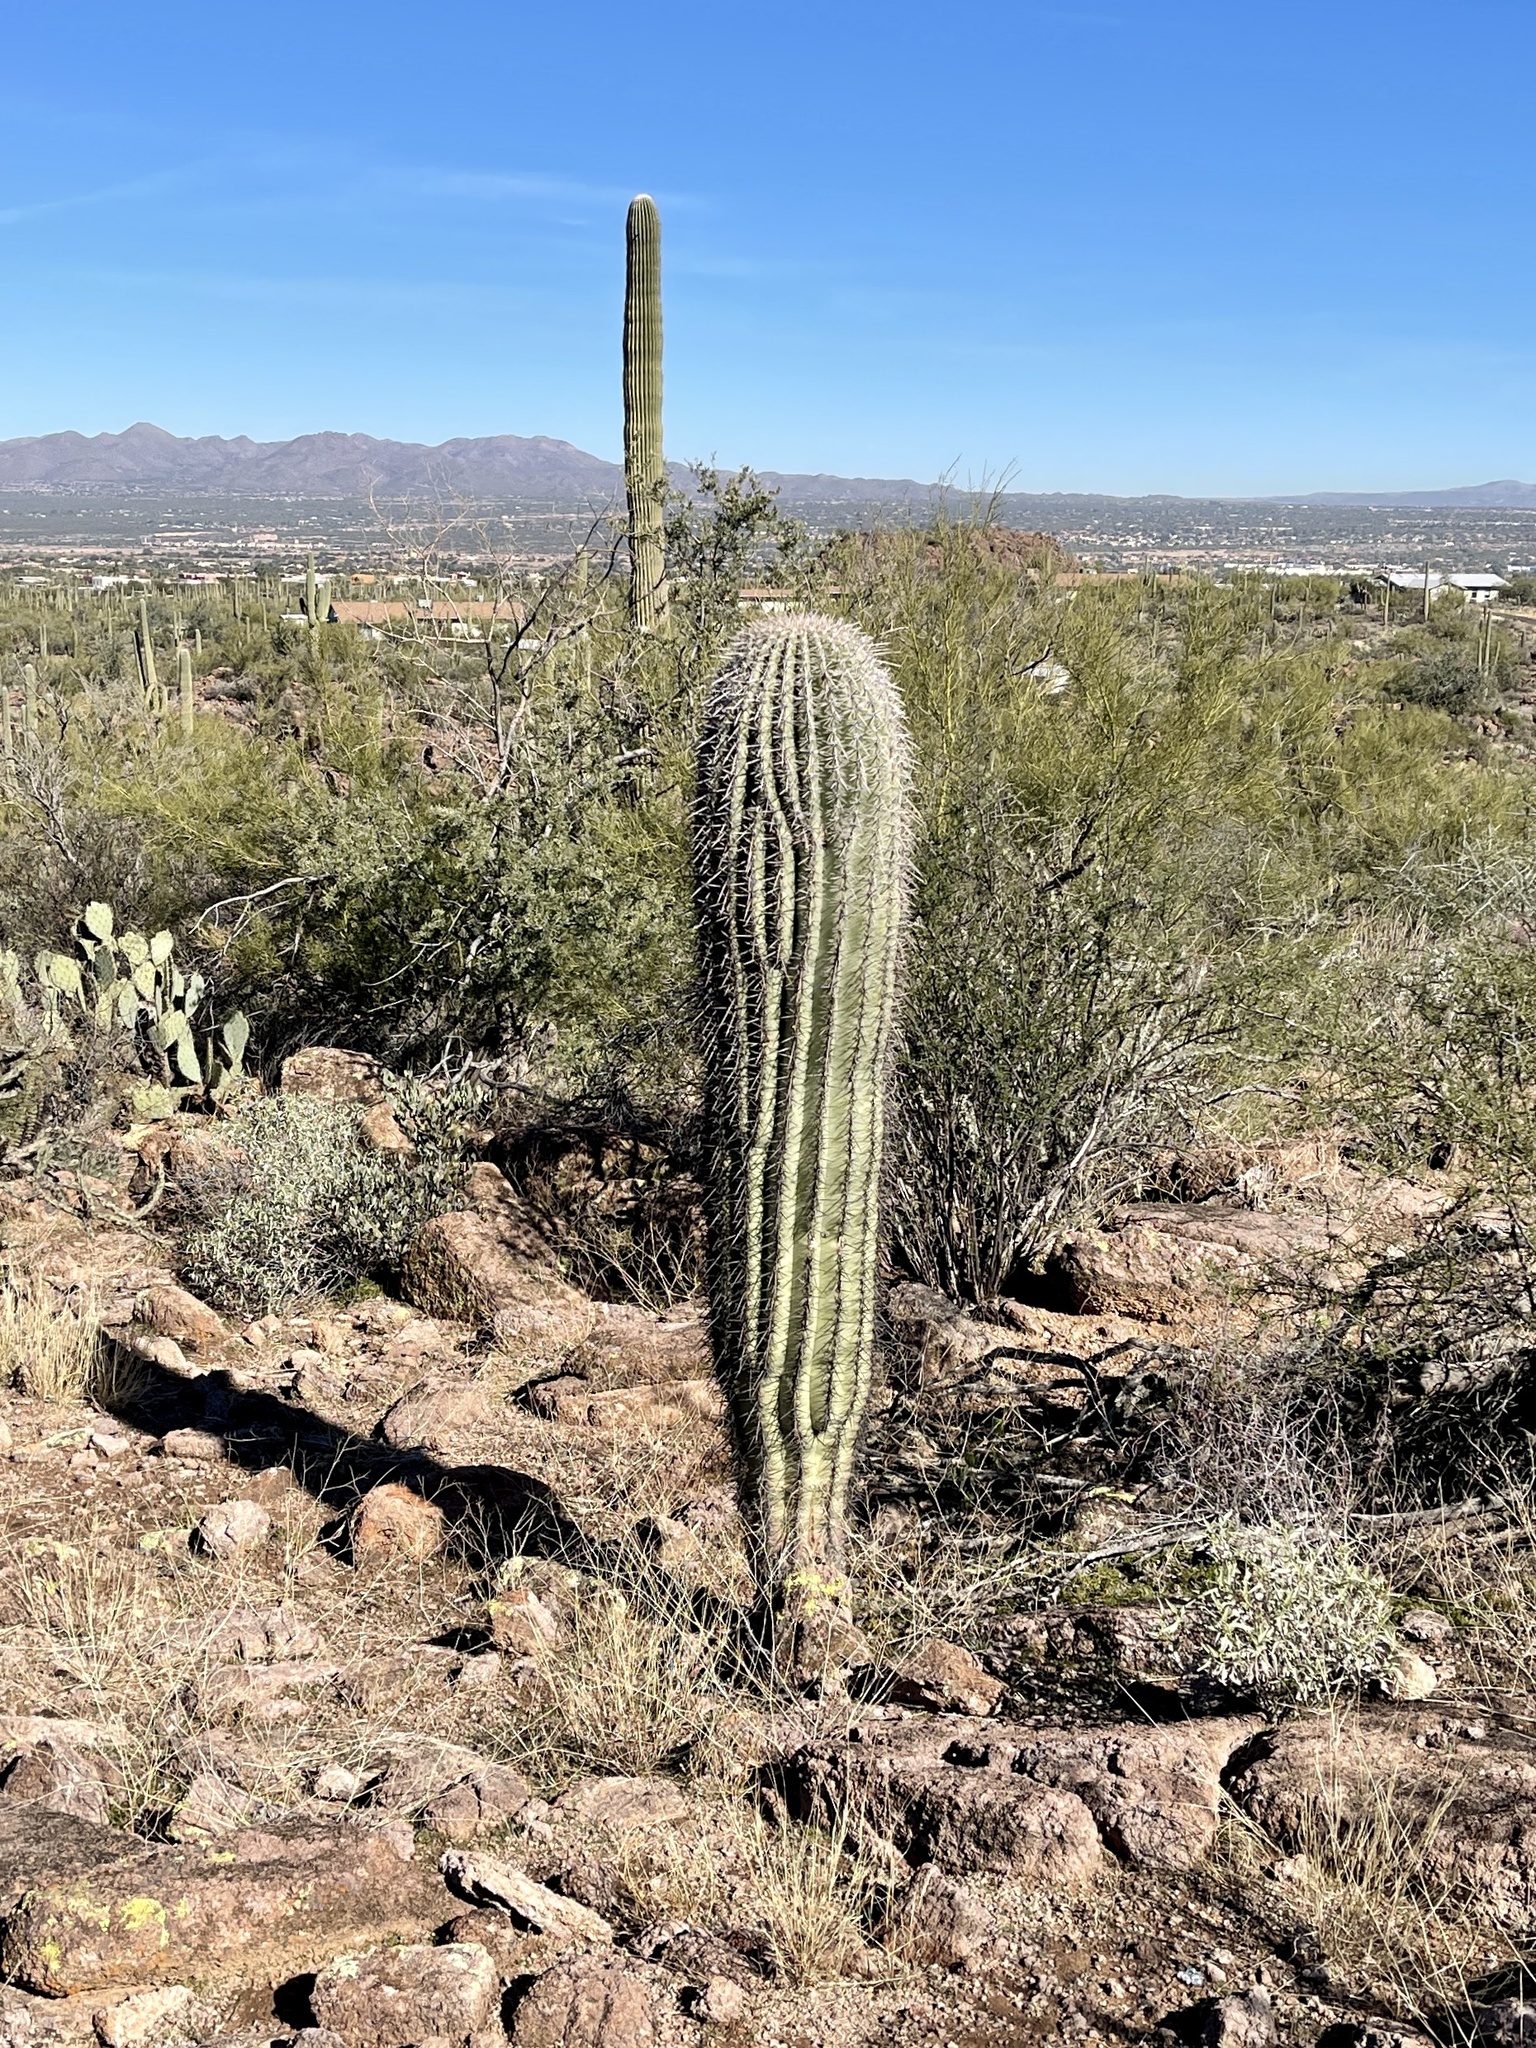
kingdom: Plantae
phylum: Tracheophyta
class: Magnoliopsida
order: Caryophyllales
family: Cactaceae
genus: Carnegiea
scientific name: Carnegiea gigantea
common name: Saguaro
